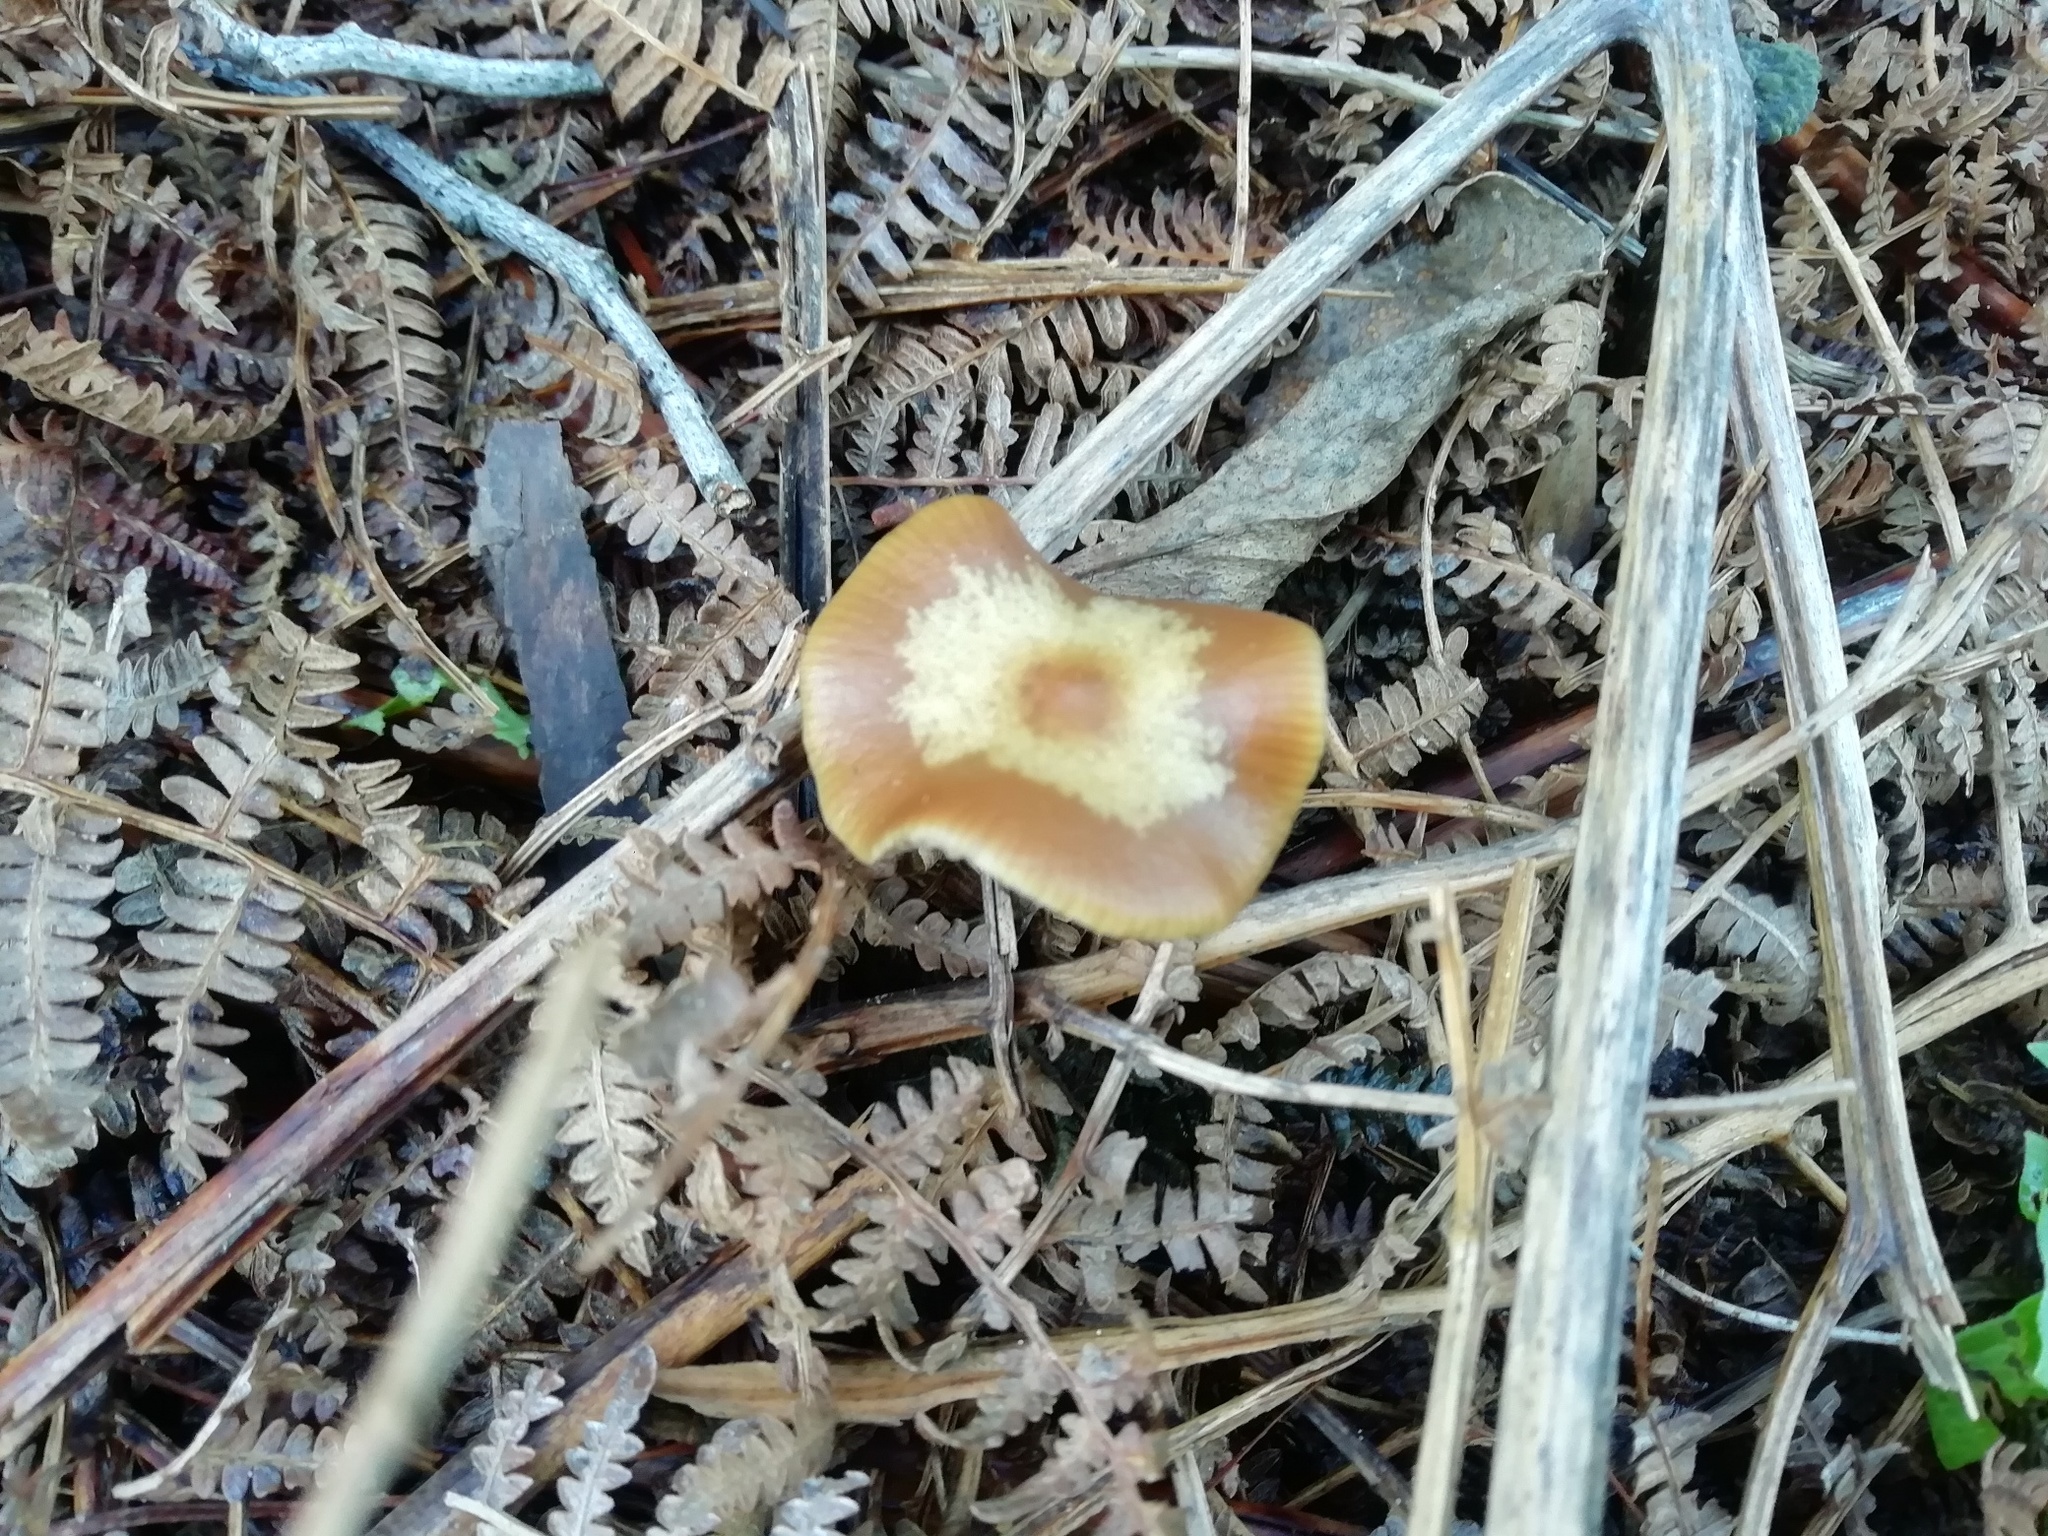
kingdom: Fungi
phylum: Basidiomycota
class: Agaricomycetes
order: Agaricales
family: Hymenogastraceae
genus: Psilocybe
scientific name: Psilocybe cyanescens
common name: Blueleg brownie
